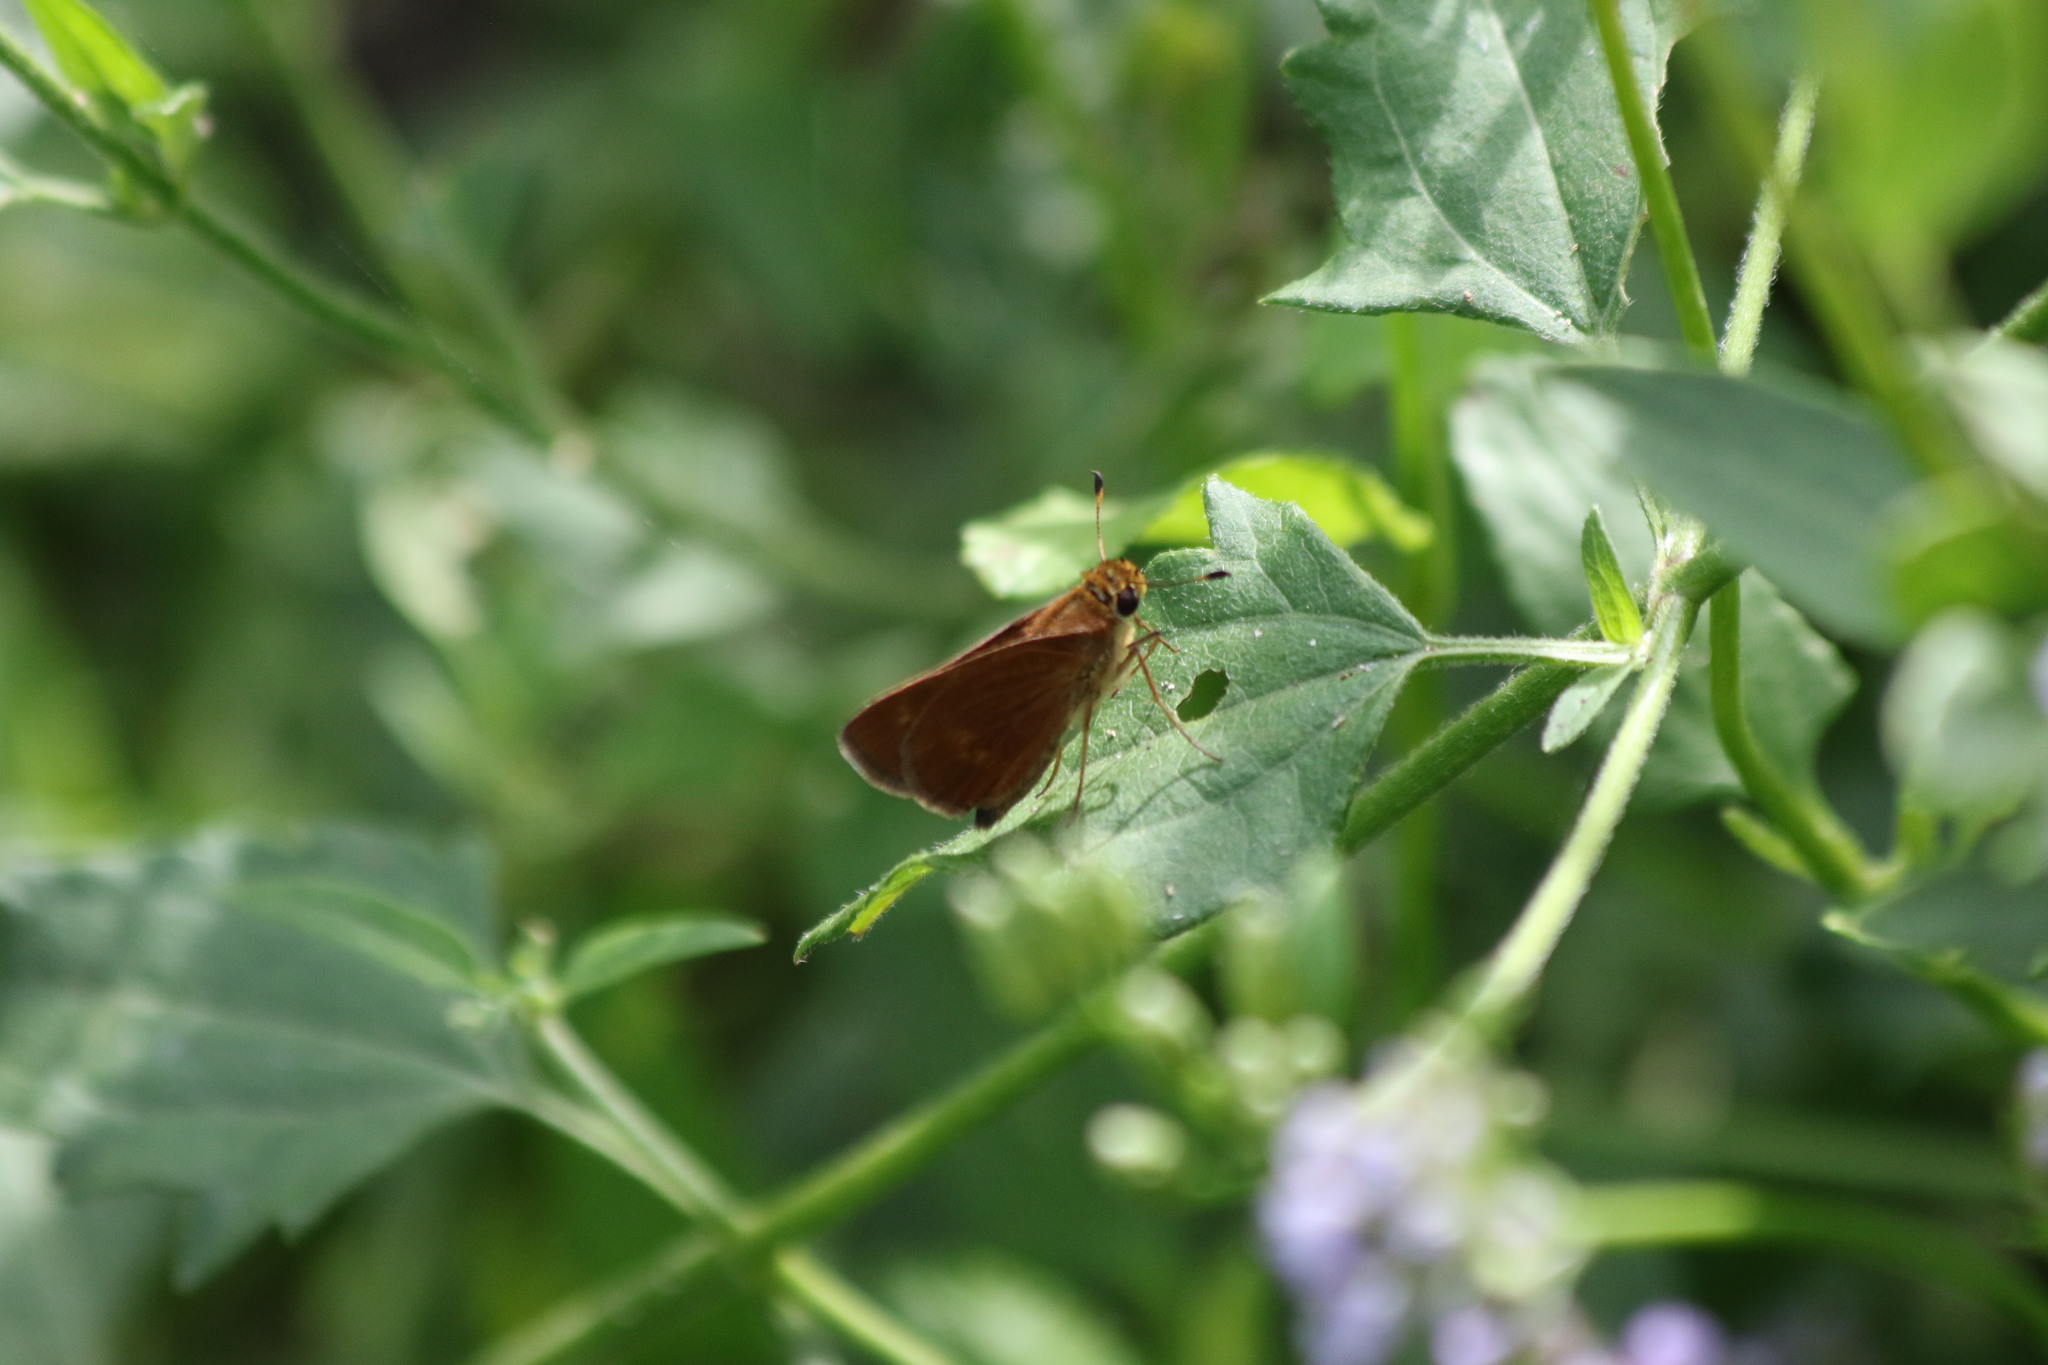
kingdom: Animalia
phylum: Arthropoda
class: Insecta
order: Lepidoptera
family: Hesperiidae
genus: Polites
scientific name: Polites otho
